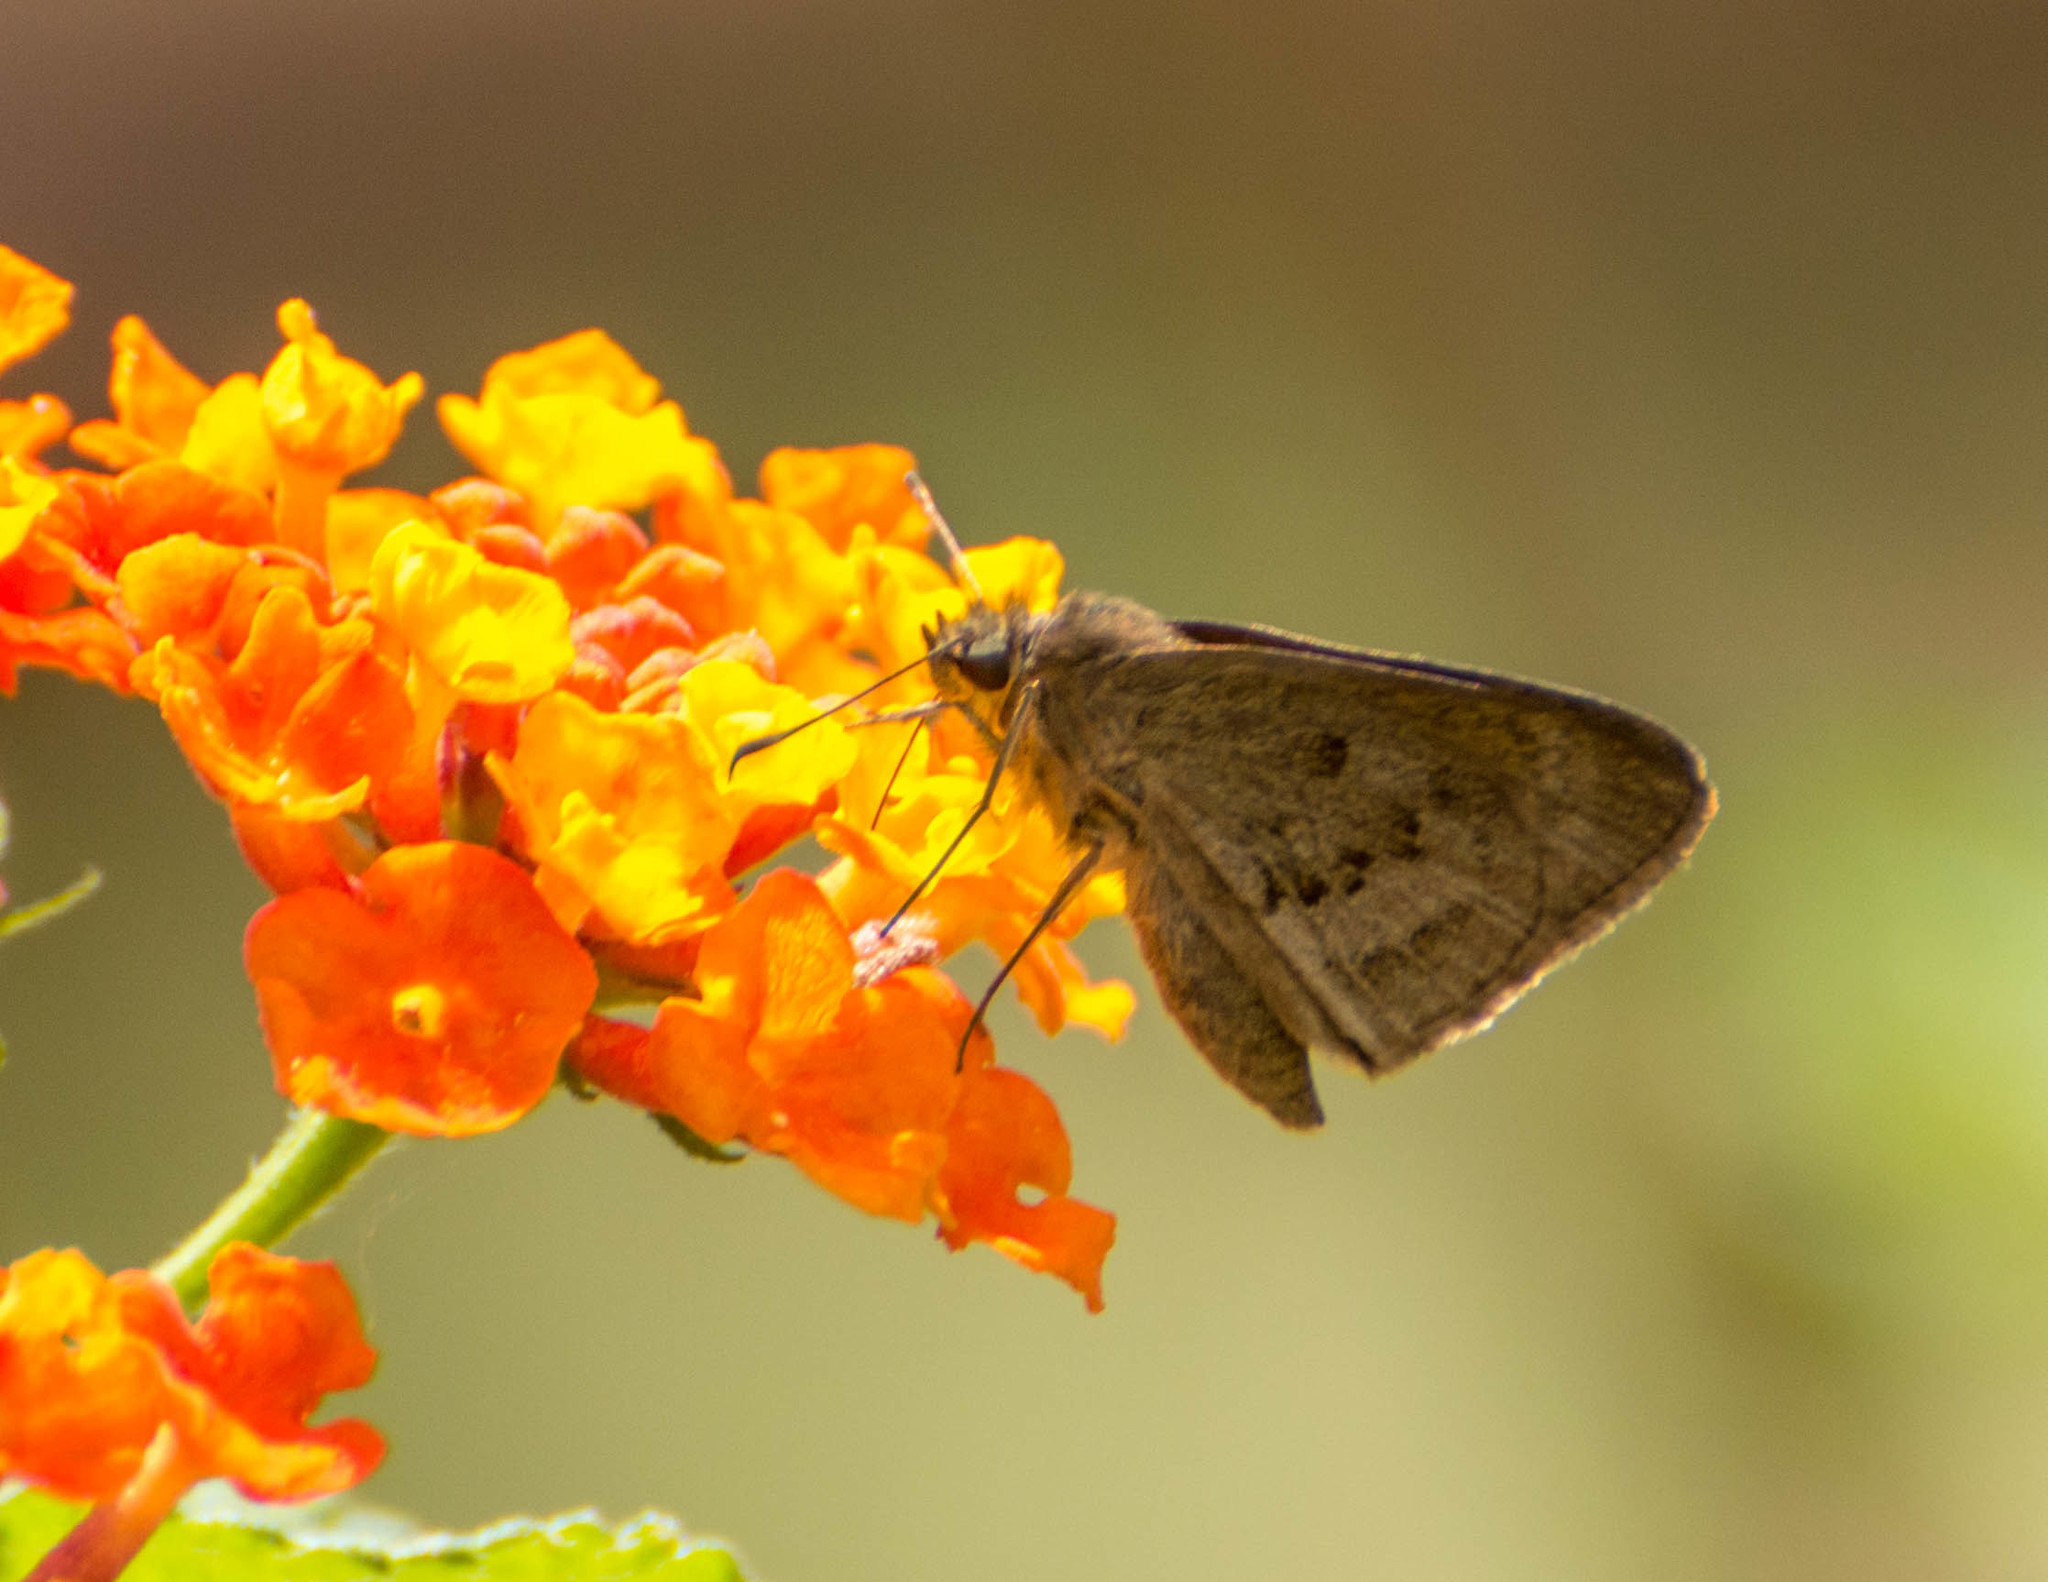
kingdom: Animalia
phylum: Arthropoda
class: Insecta
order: Lepidoptera
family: Hesperiidae
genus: Cymaenes
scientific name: Cymaenes gisca
